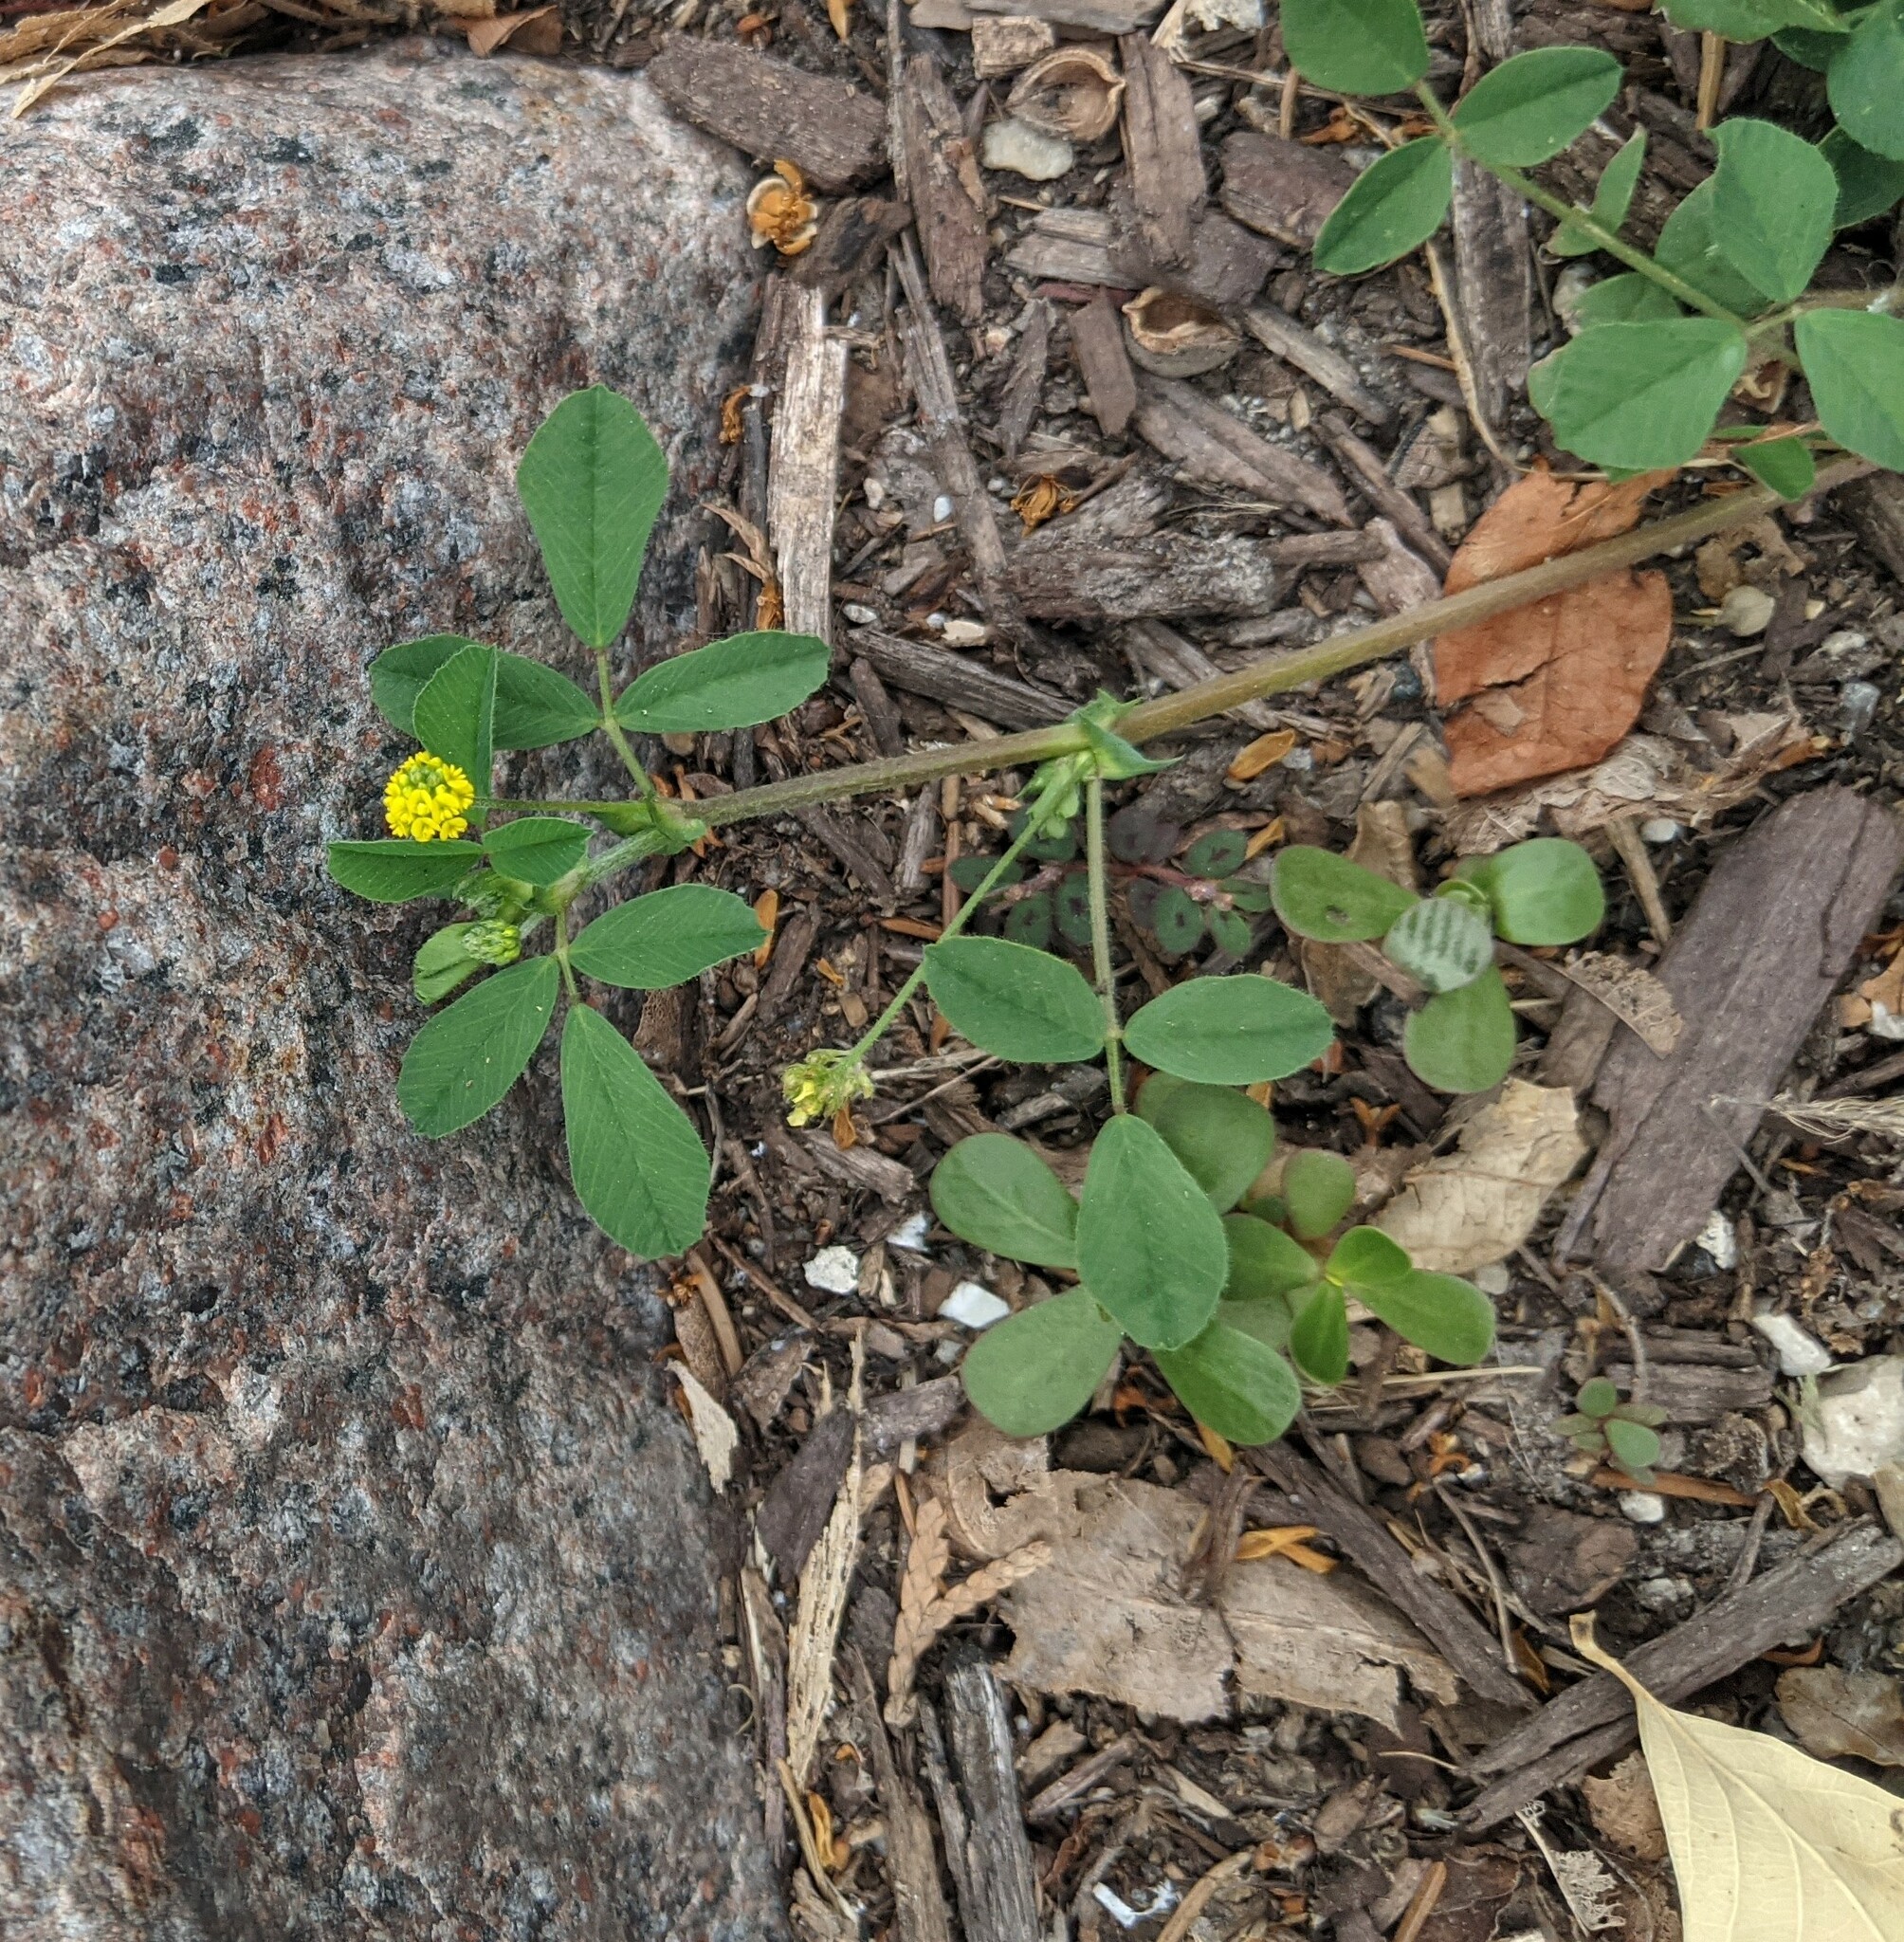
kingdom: Plantae
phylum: Tracheophyta
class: Magnoliopsida
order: Fabales
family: Fabaceae
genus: Medicago
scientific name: Medicago lupulina
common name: Black medick
